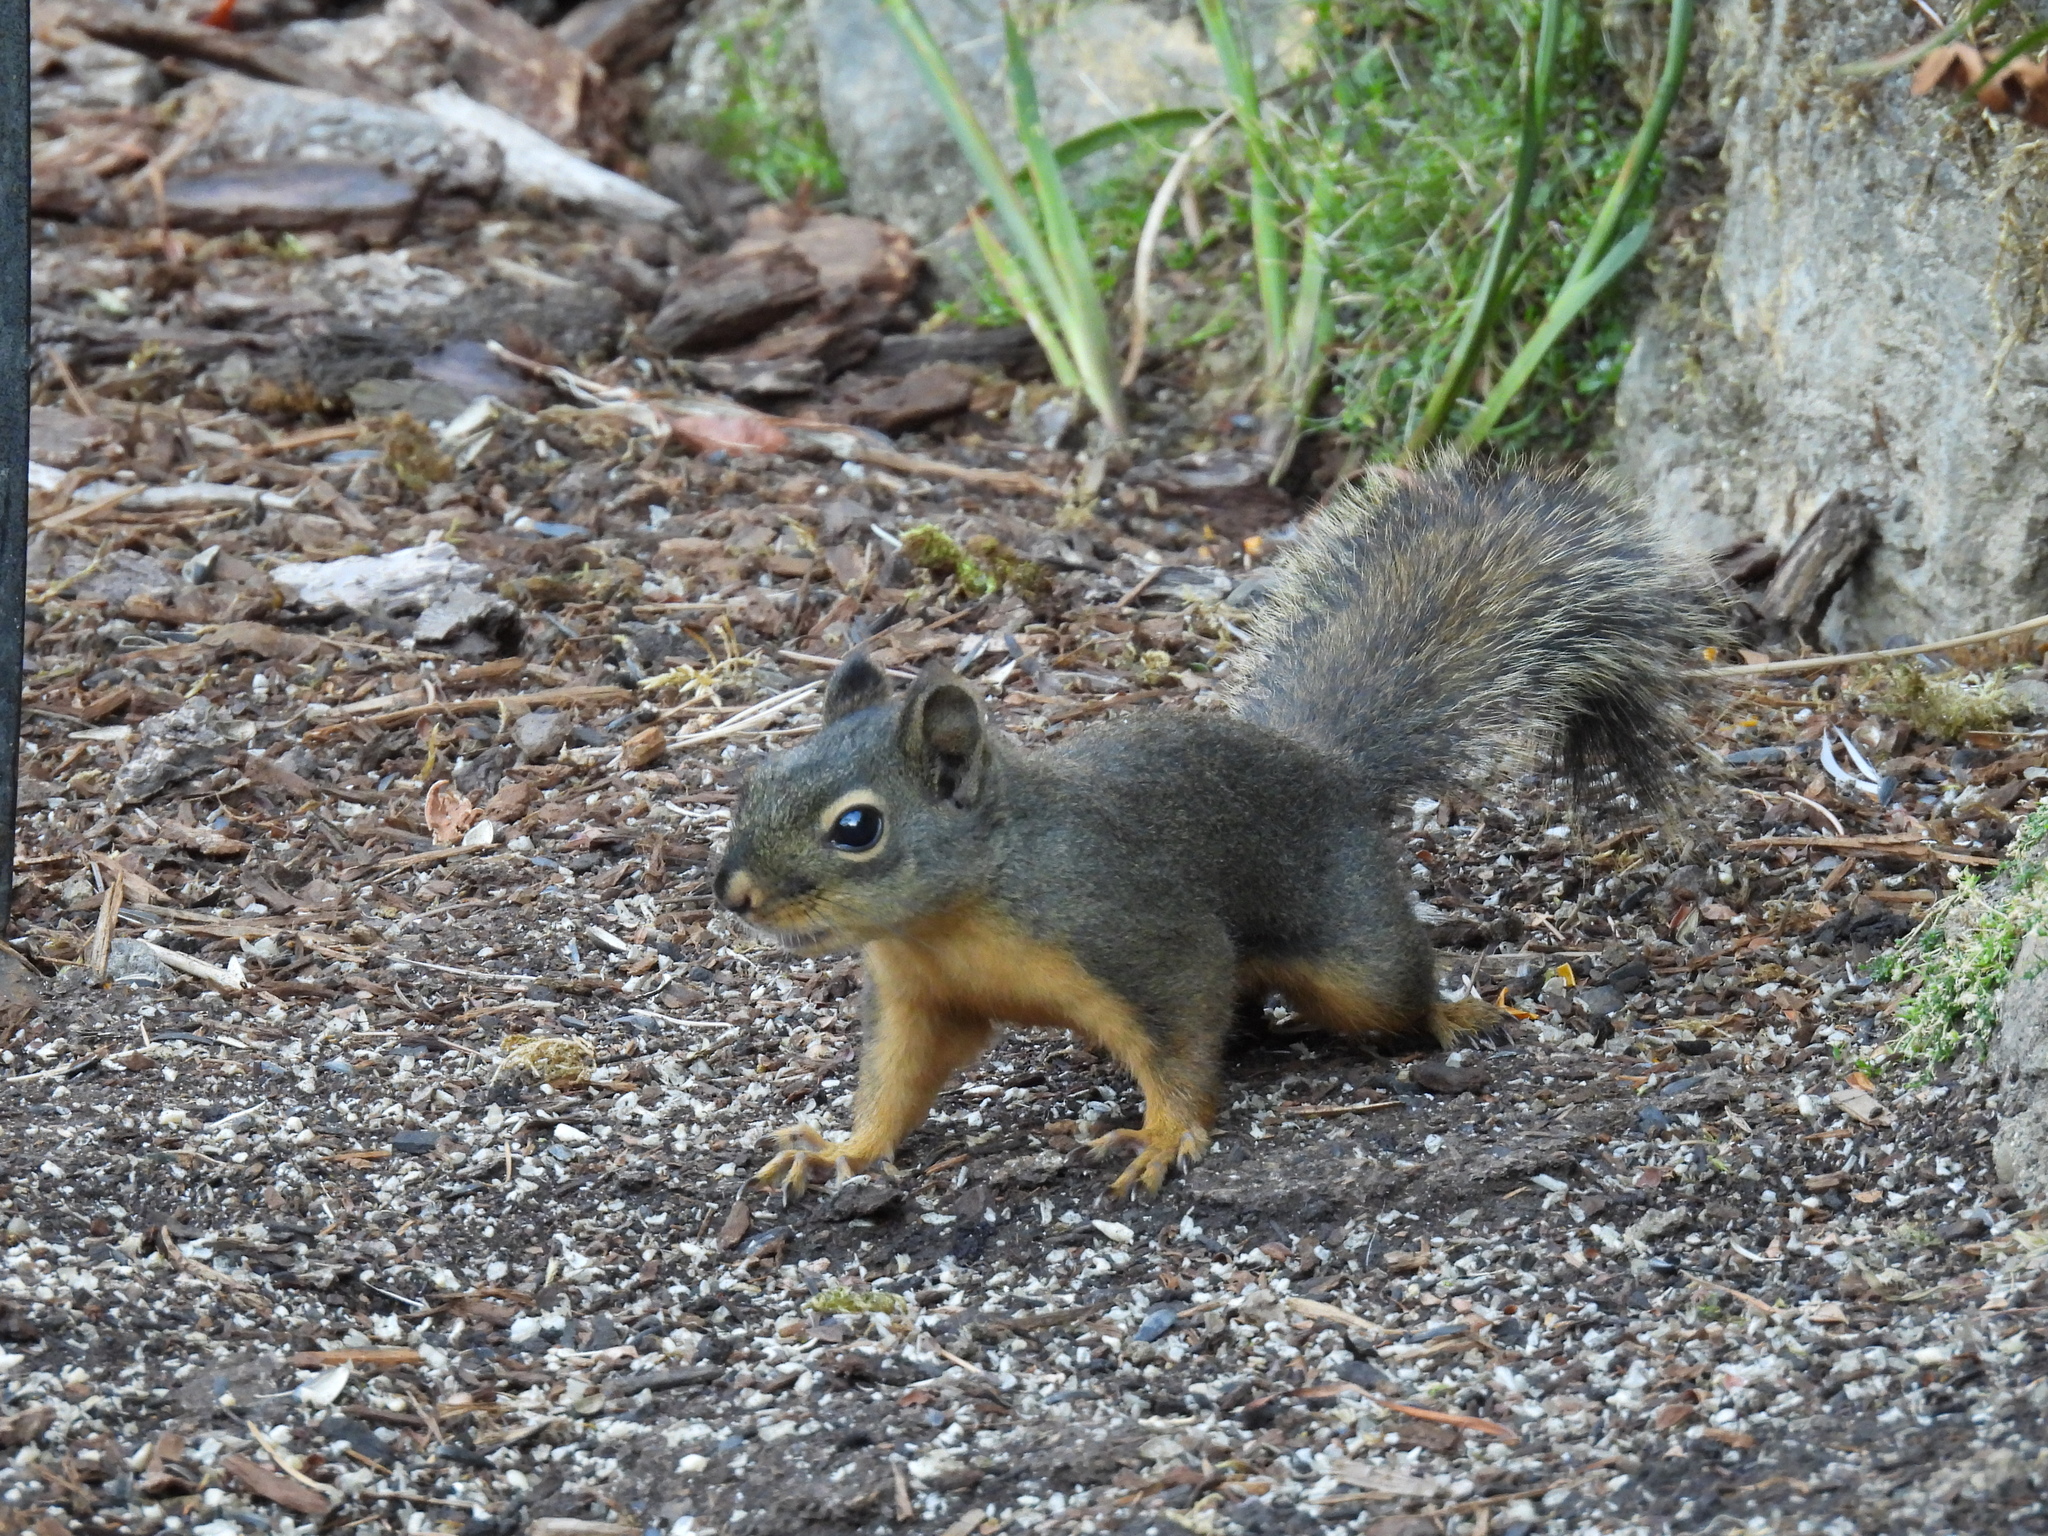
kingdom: Animalia
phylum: Chordata
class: Mammalia
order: Rodentia
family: Sciuridae
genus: Tamiasciurus
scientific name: Tamiasciurus douglasii
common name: Douglas's squirrel
